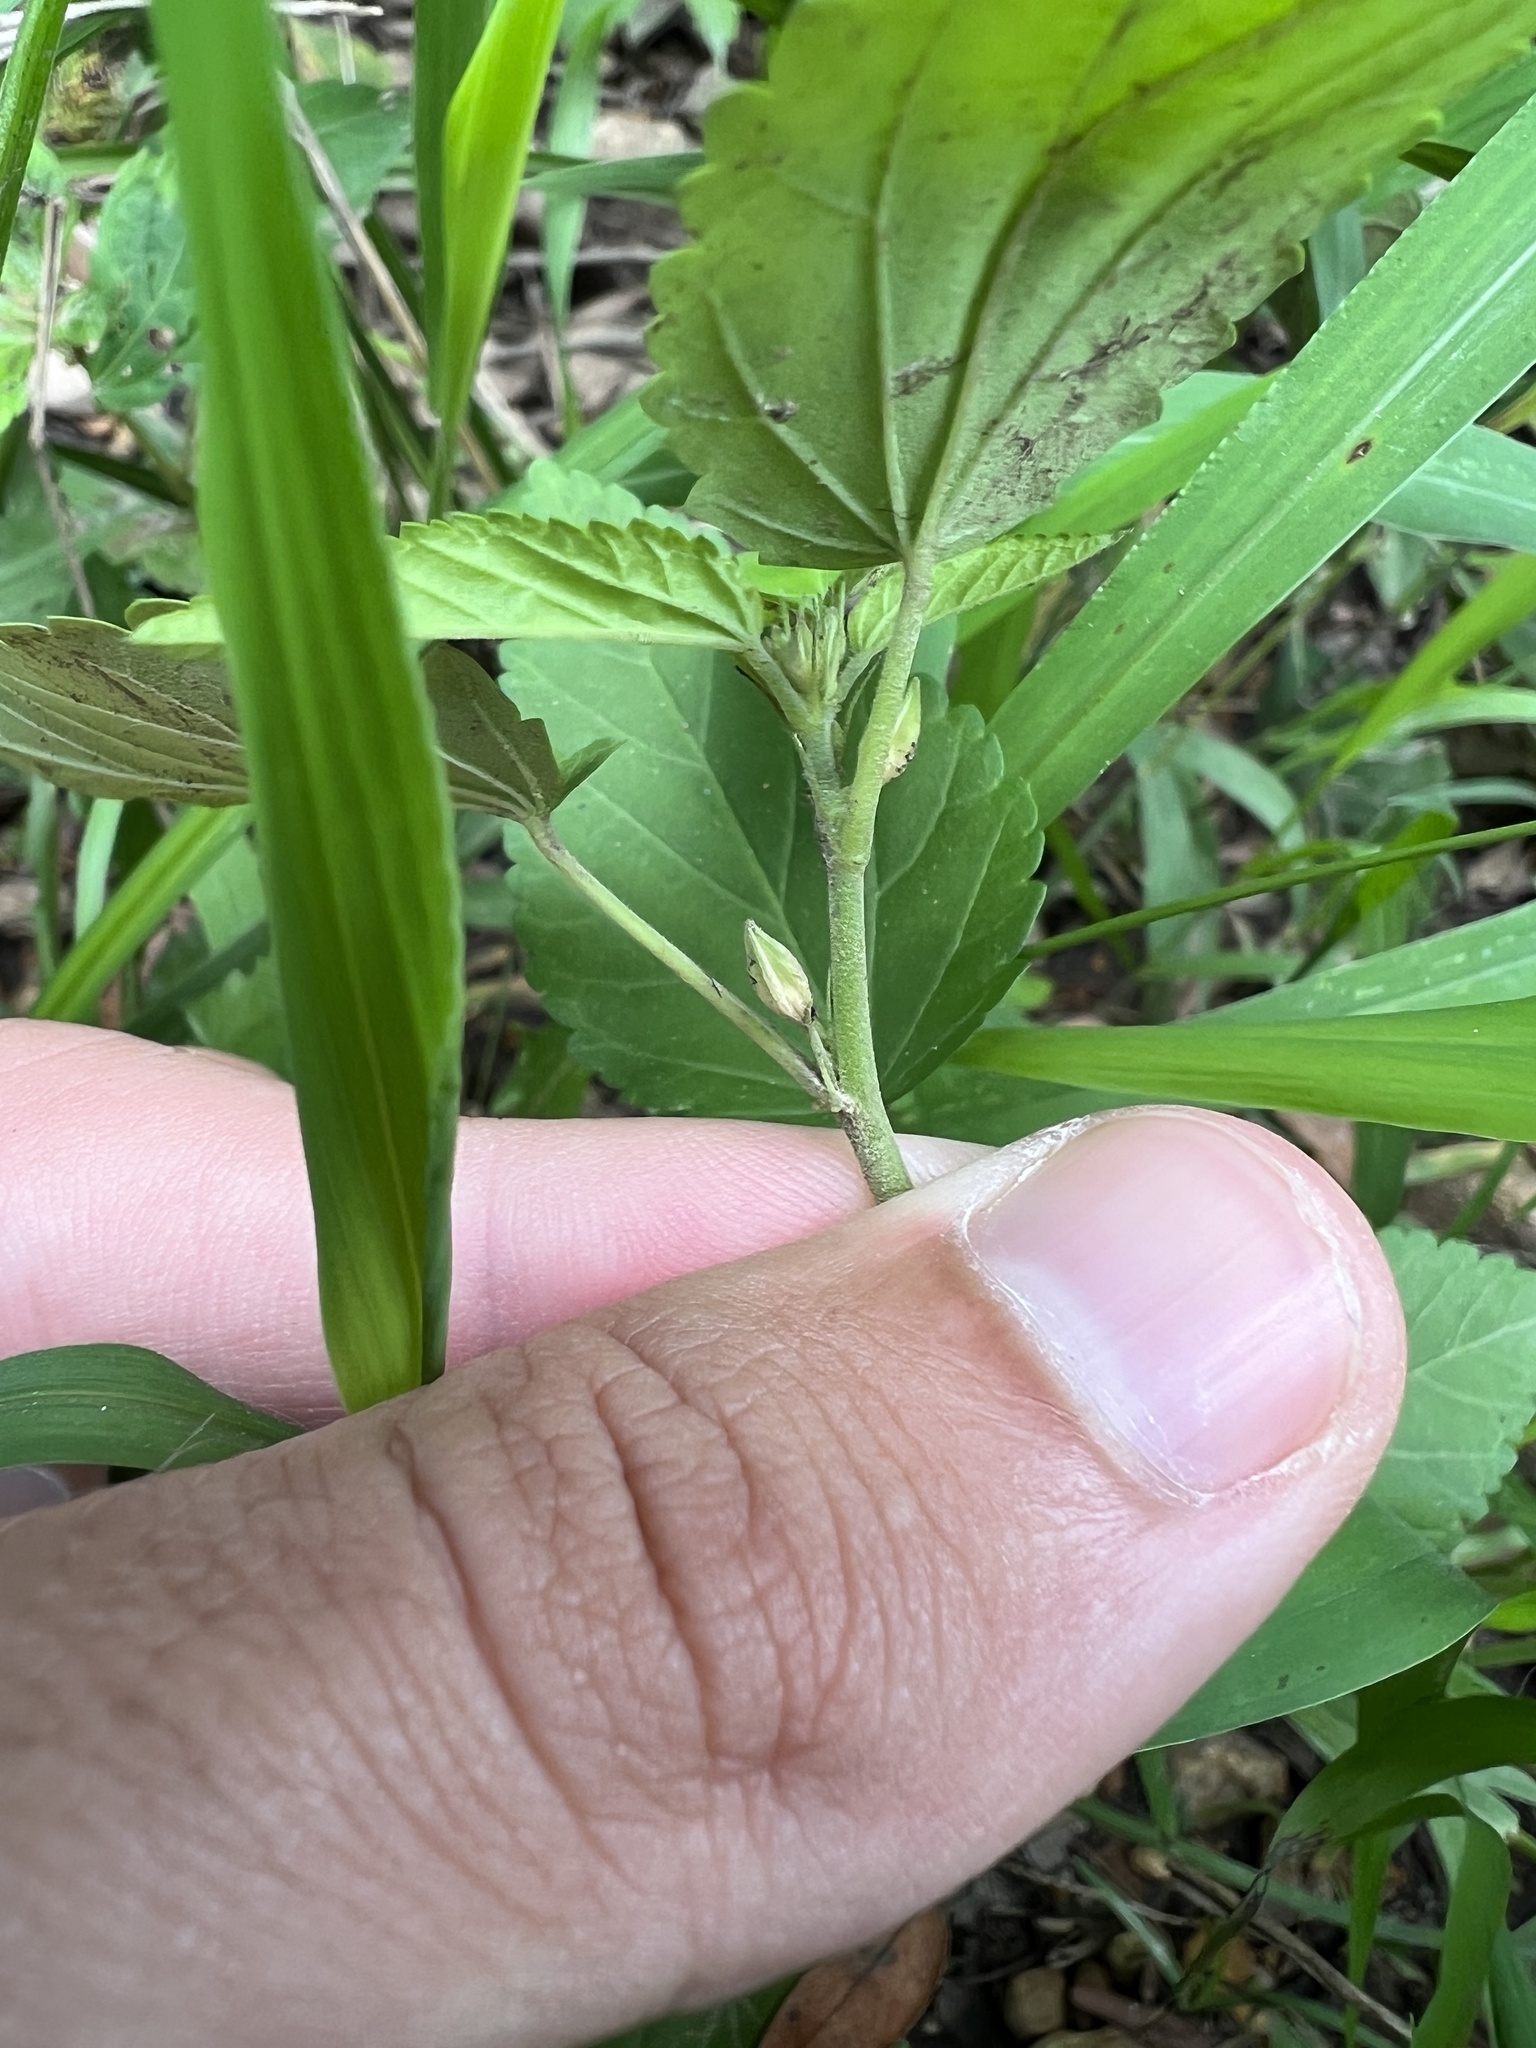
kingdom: Plantae
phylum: Tracheophyta
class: Magnoliopsida
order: Malvales
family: Malvaceae
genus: Sida
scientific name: Sida spinosa
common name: Prickly fanpetals
